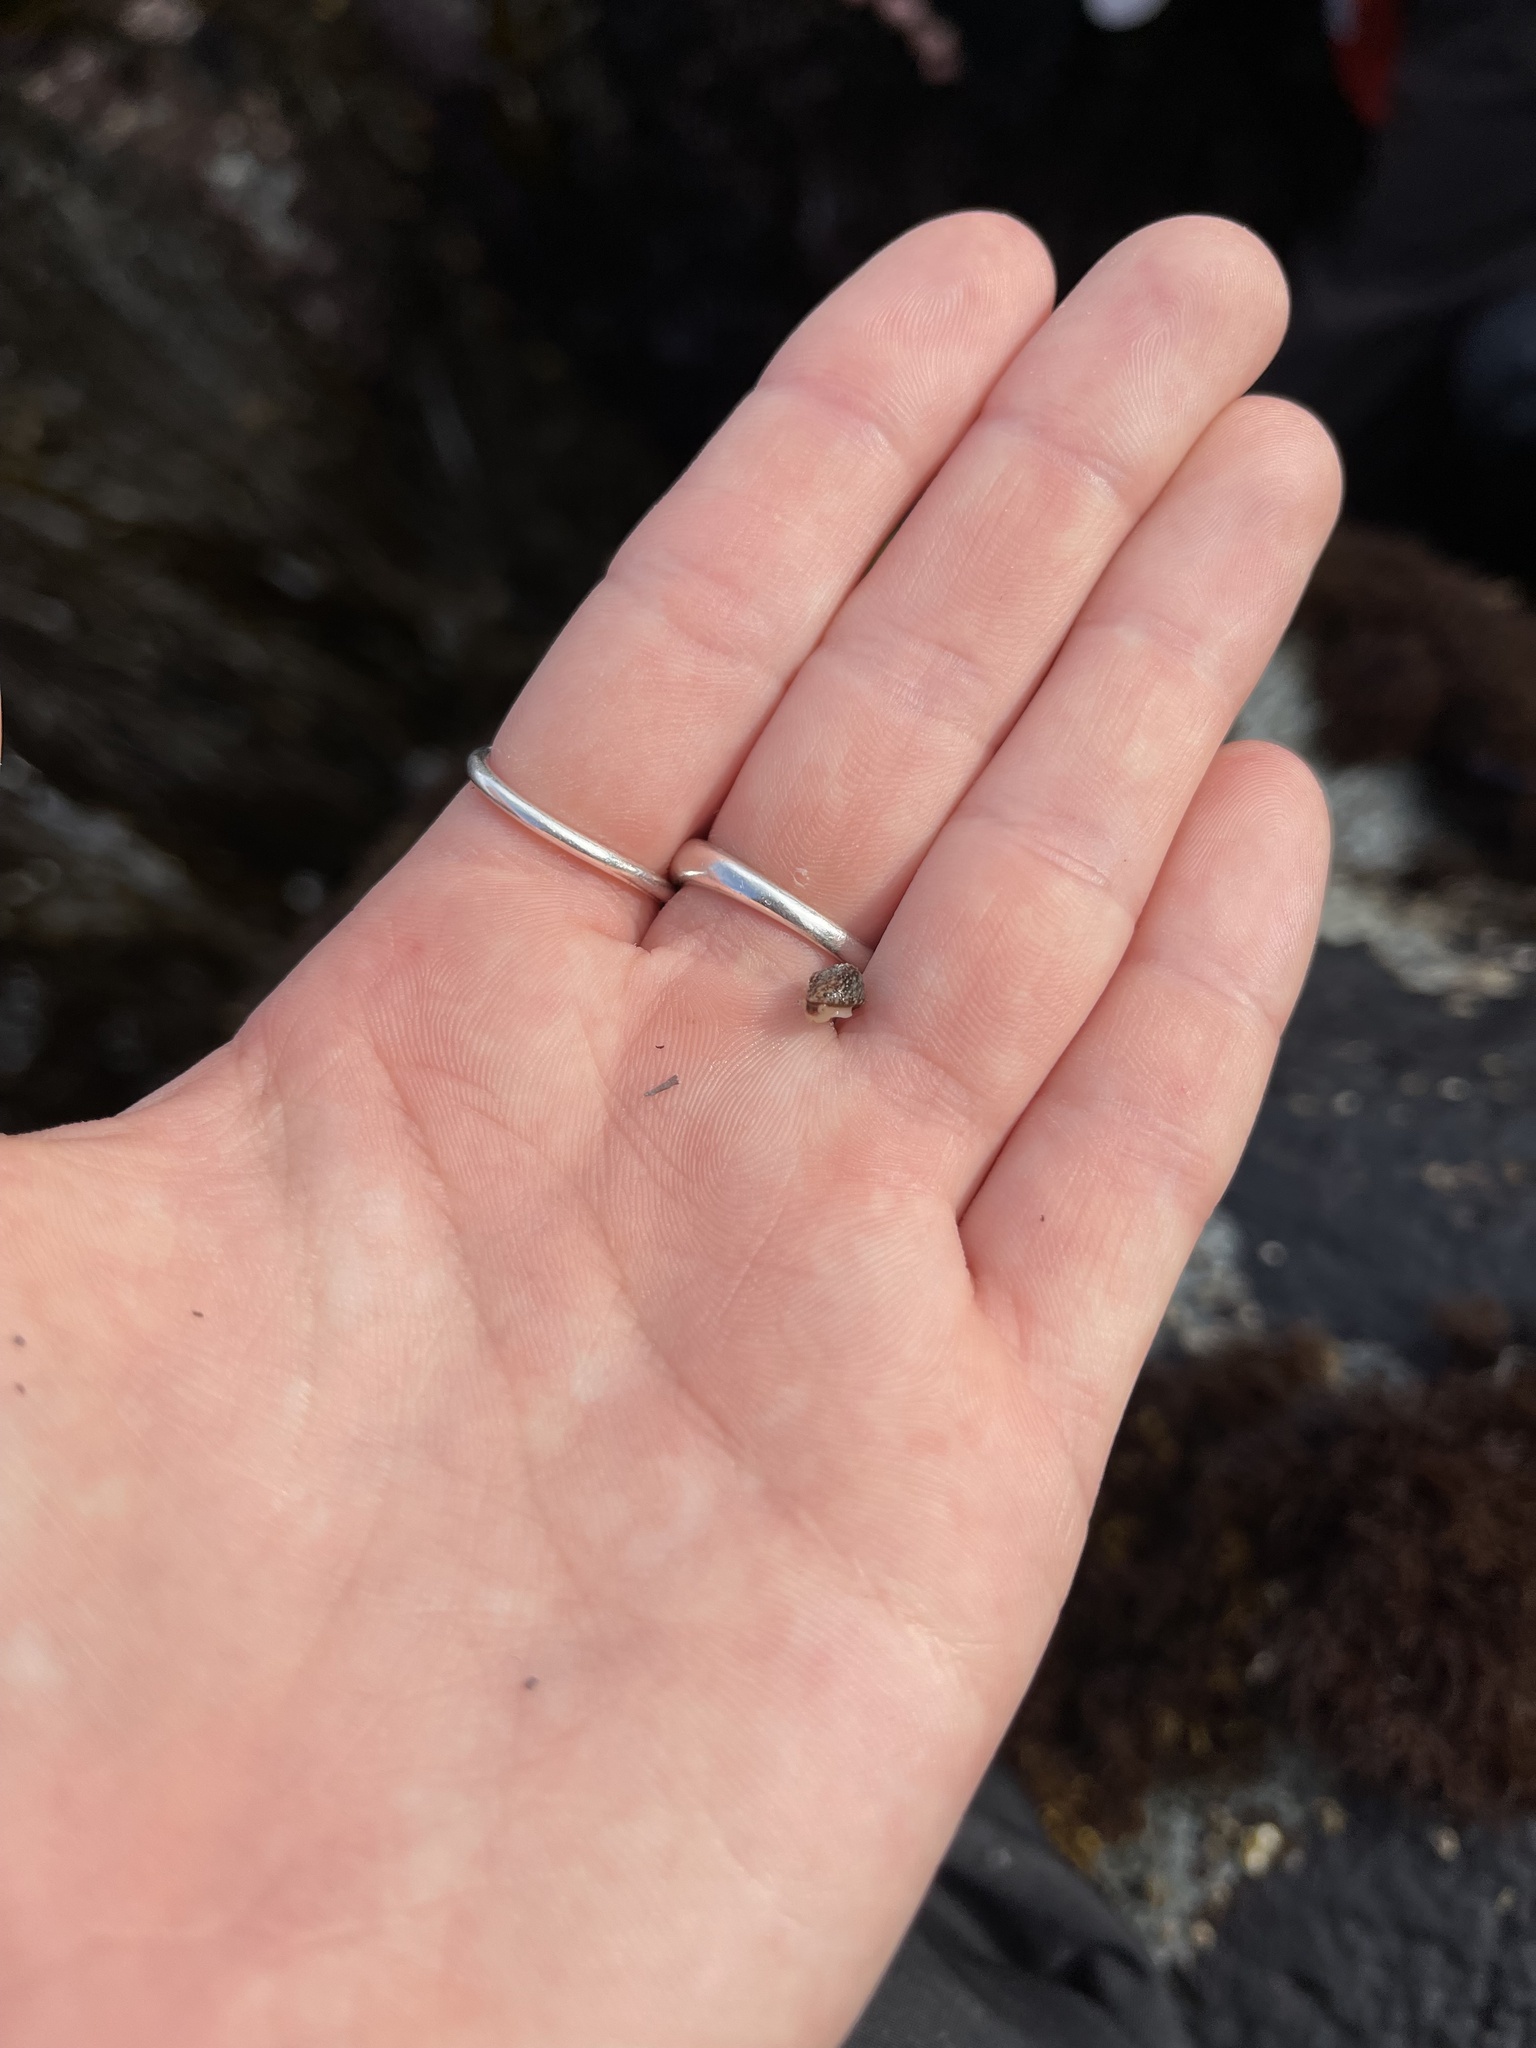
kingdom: Animalia
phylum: Mollusca
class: Gastropoda
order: Systellommatophora
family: Onchidiidae
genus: Onchidella
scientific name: Onchidella carpenteri
